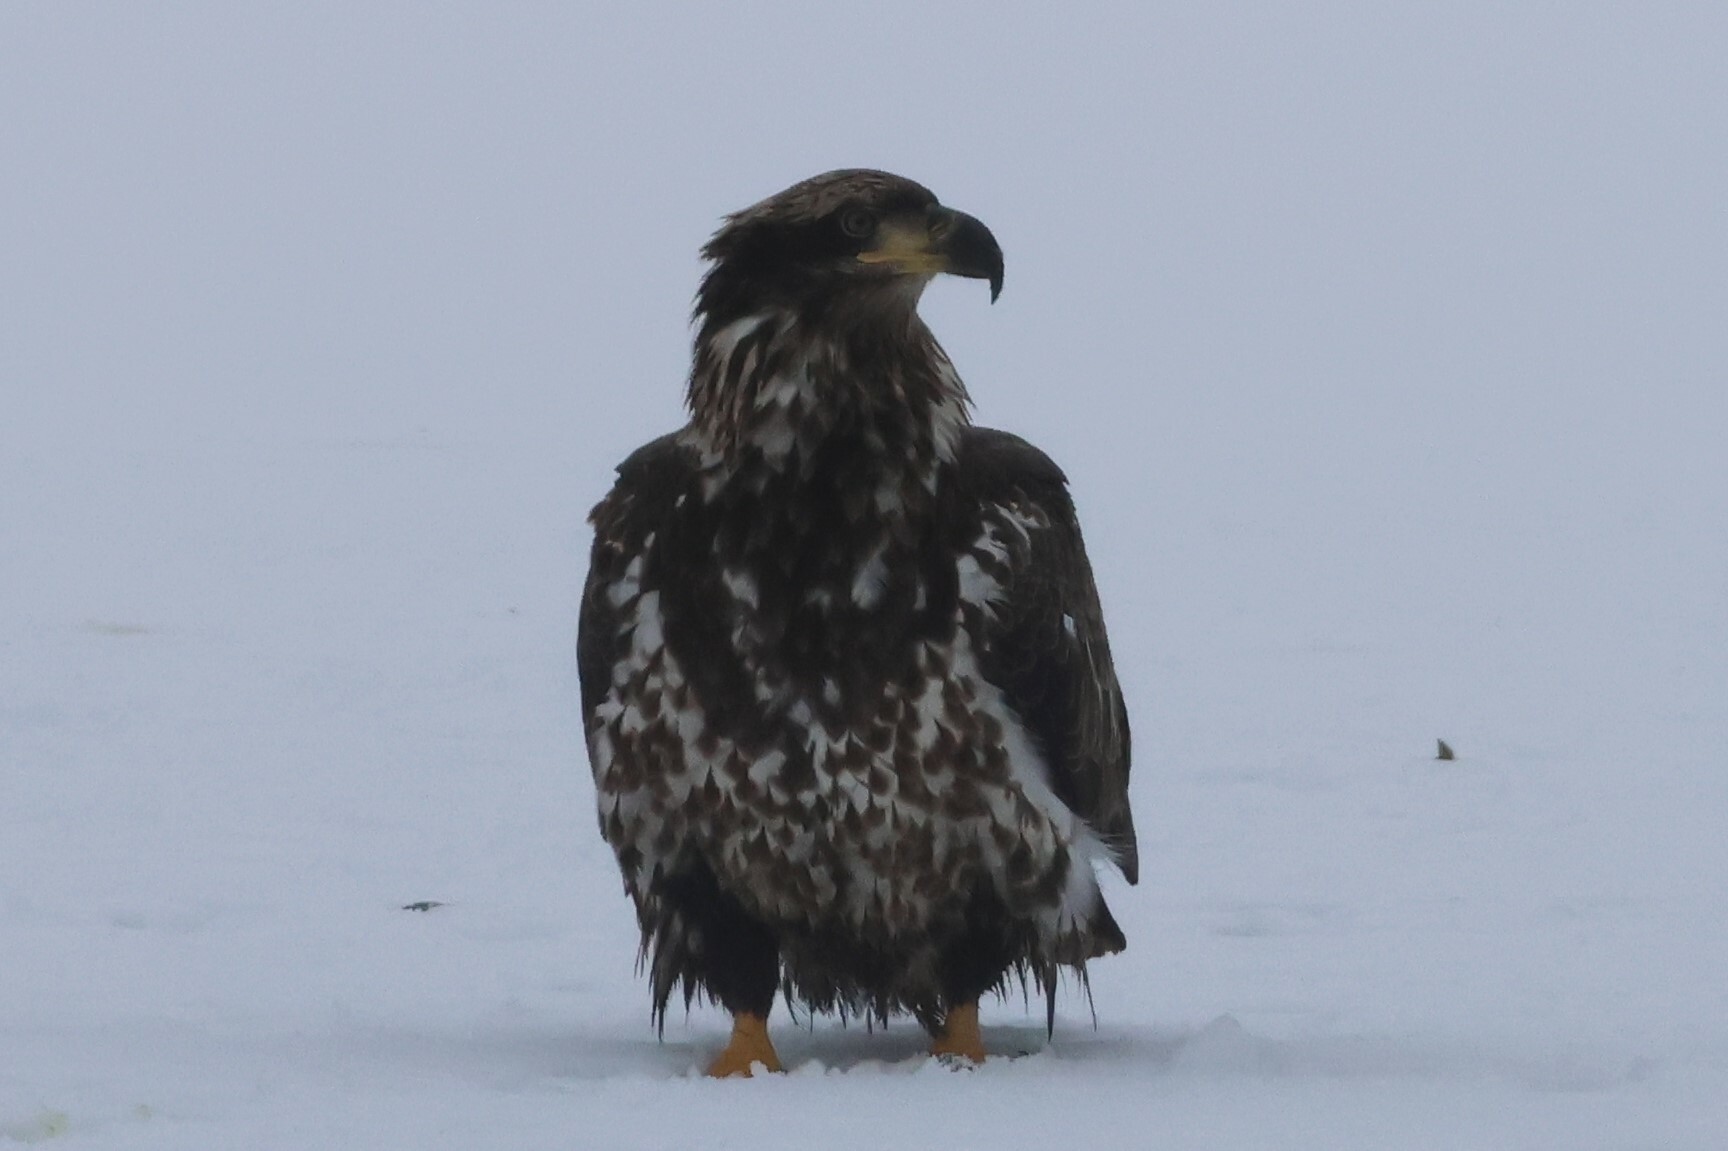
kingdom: Animalia
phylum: Chordata
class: Aves
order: Accipitriformes
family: Accipitridae
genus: Haliaeetus
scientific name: Haliaeetus leucocephalus
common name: Bald eagle
